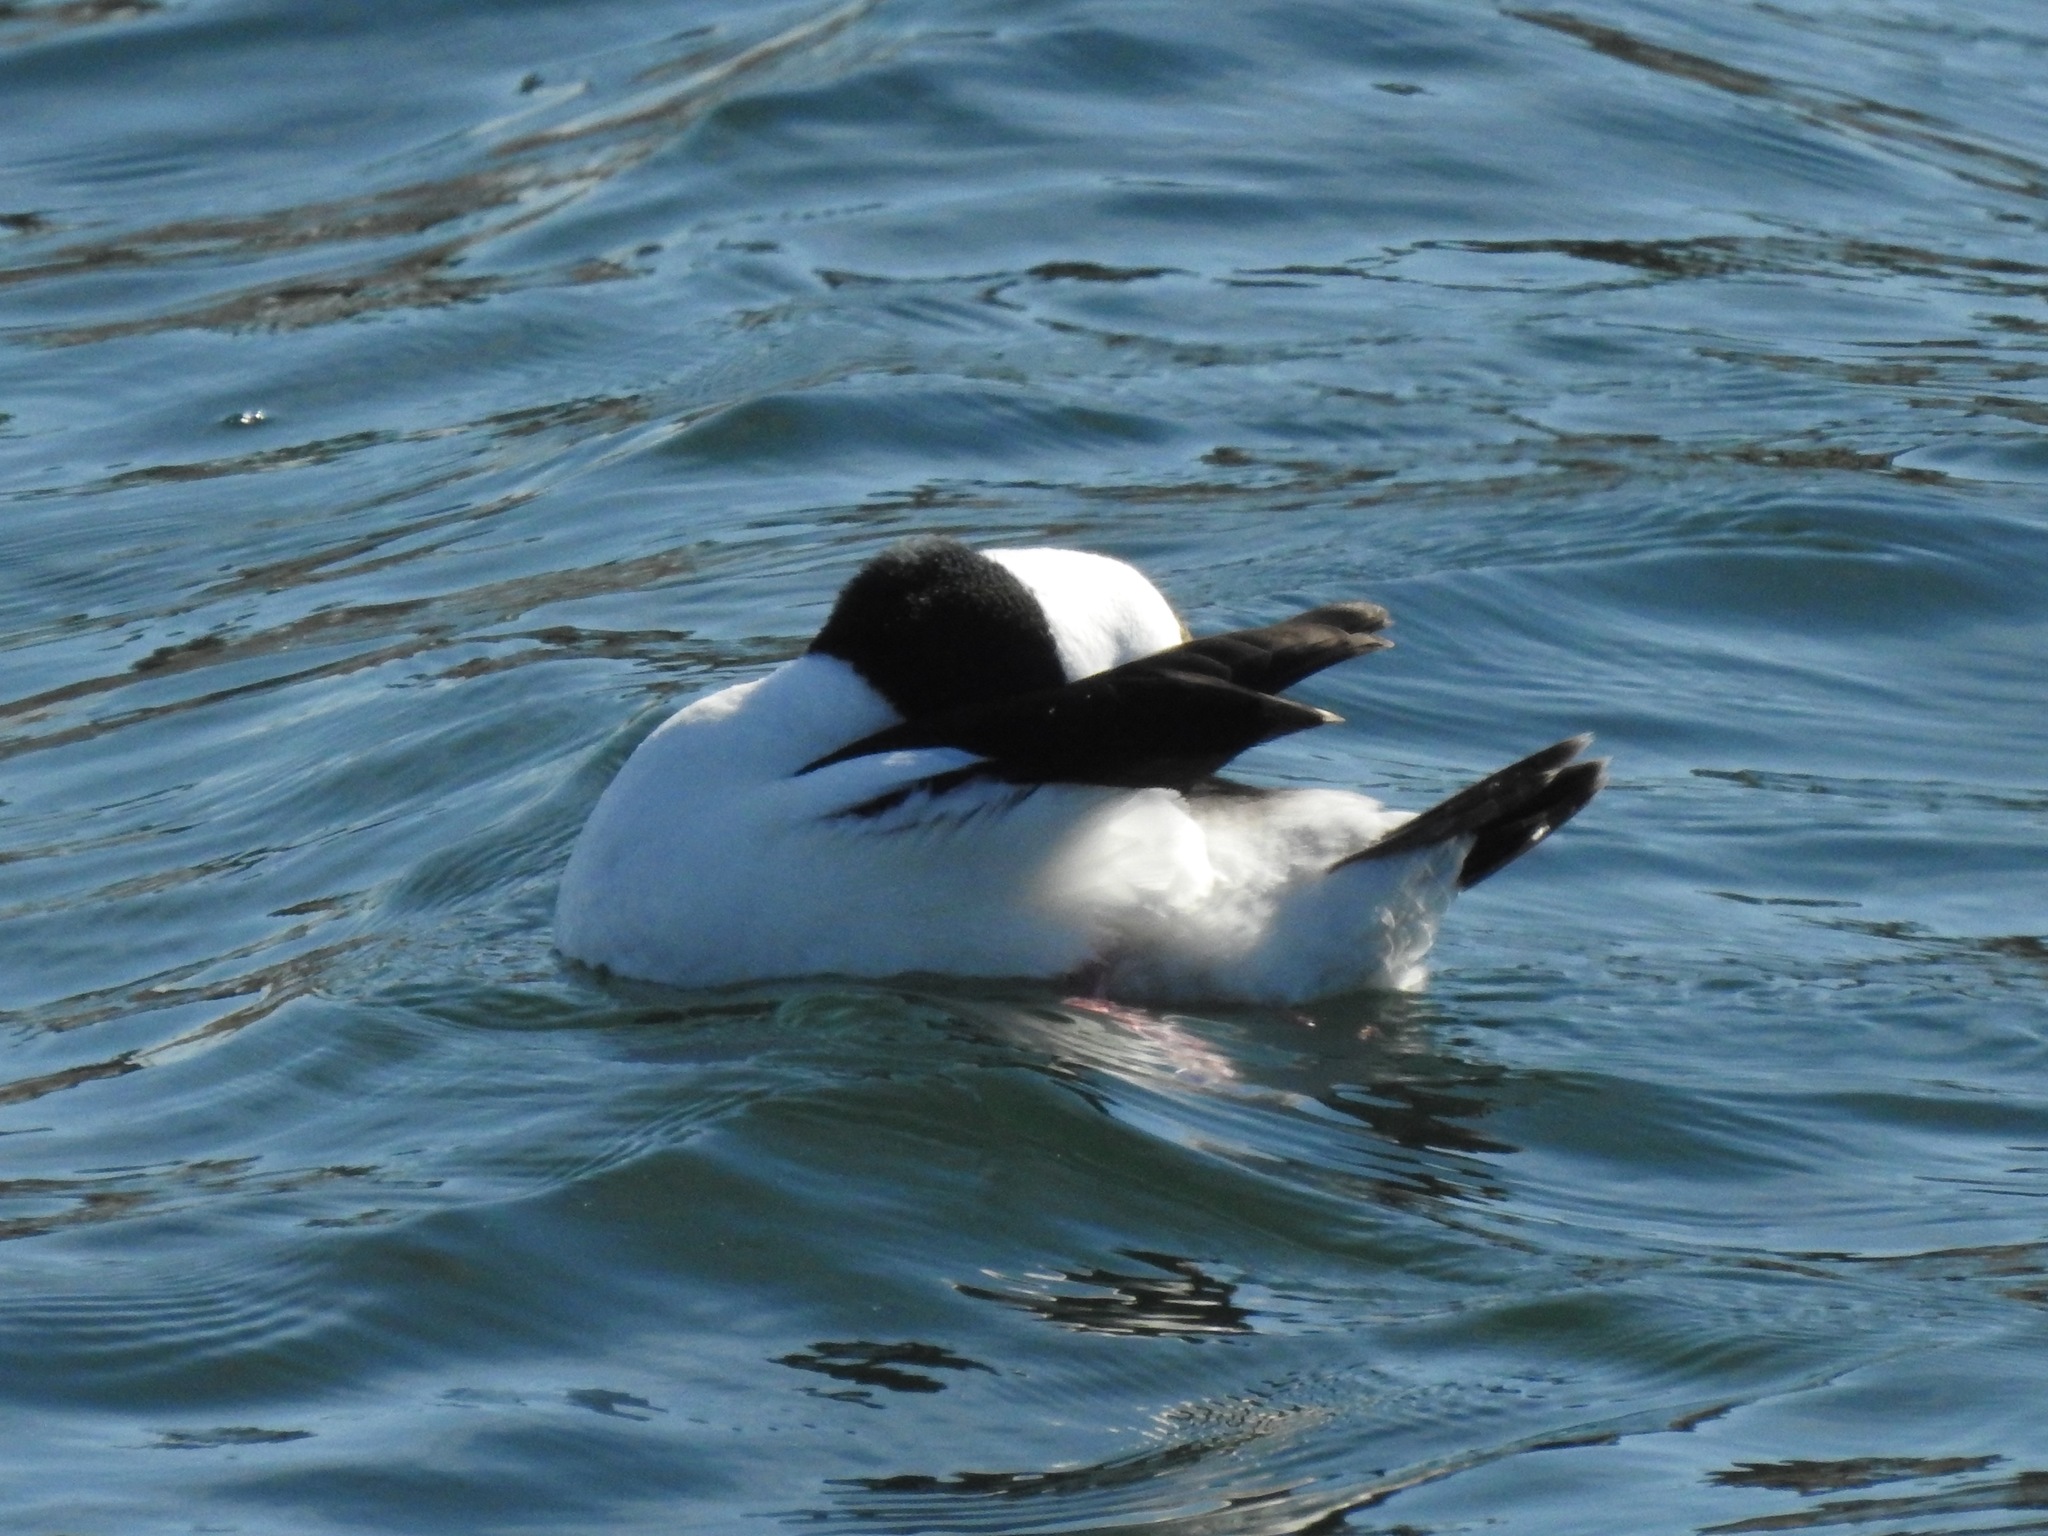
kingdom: Animalia
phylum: Chordata
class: Aves
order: Anseriformes
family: Anatidae
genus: Bucephala
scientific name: Bucephala albeola
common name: Bufflehead
